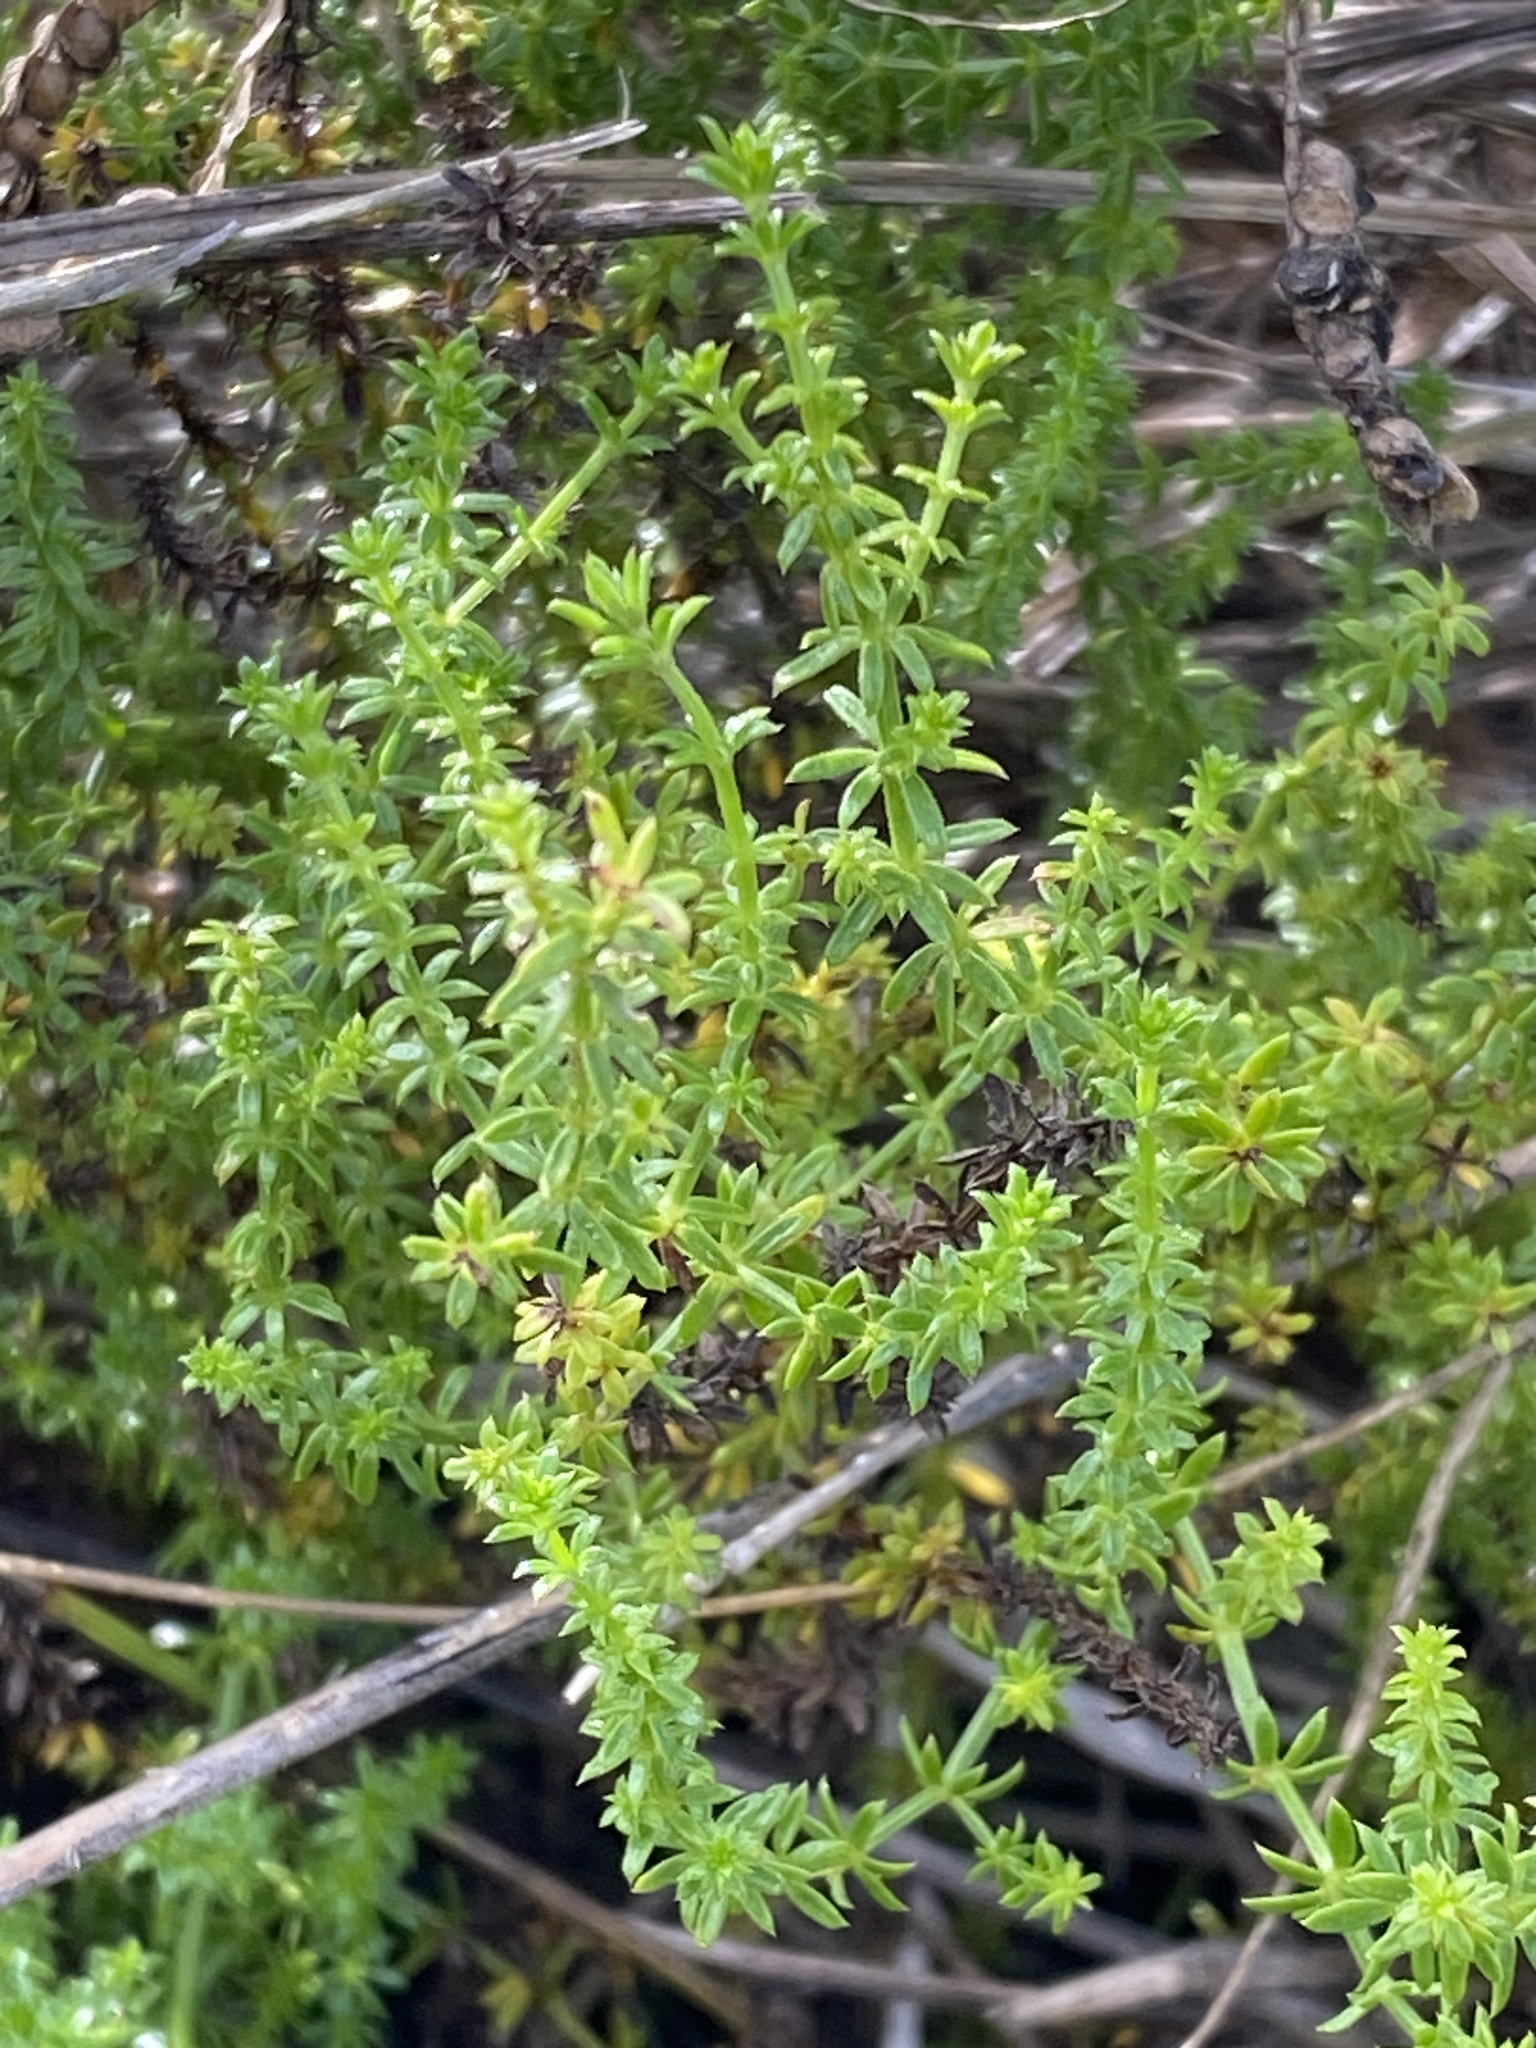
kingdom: Plantae
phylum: Tracheophyta
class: Magnoliopsida
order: Gentianales
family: Rubiaceae
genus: Asperula
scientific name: Asperula conferta
